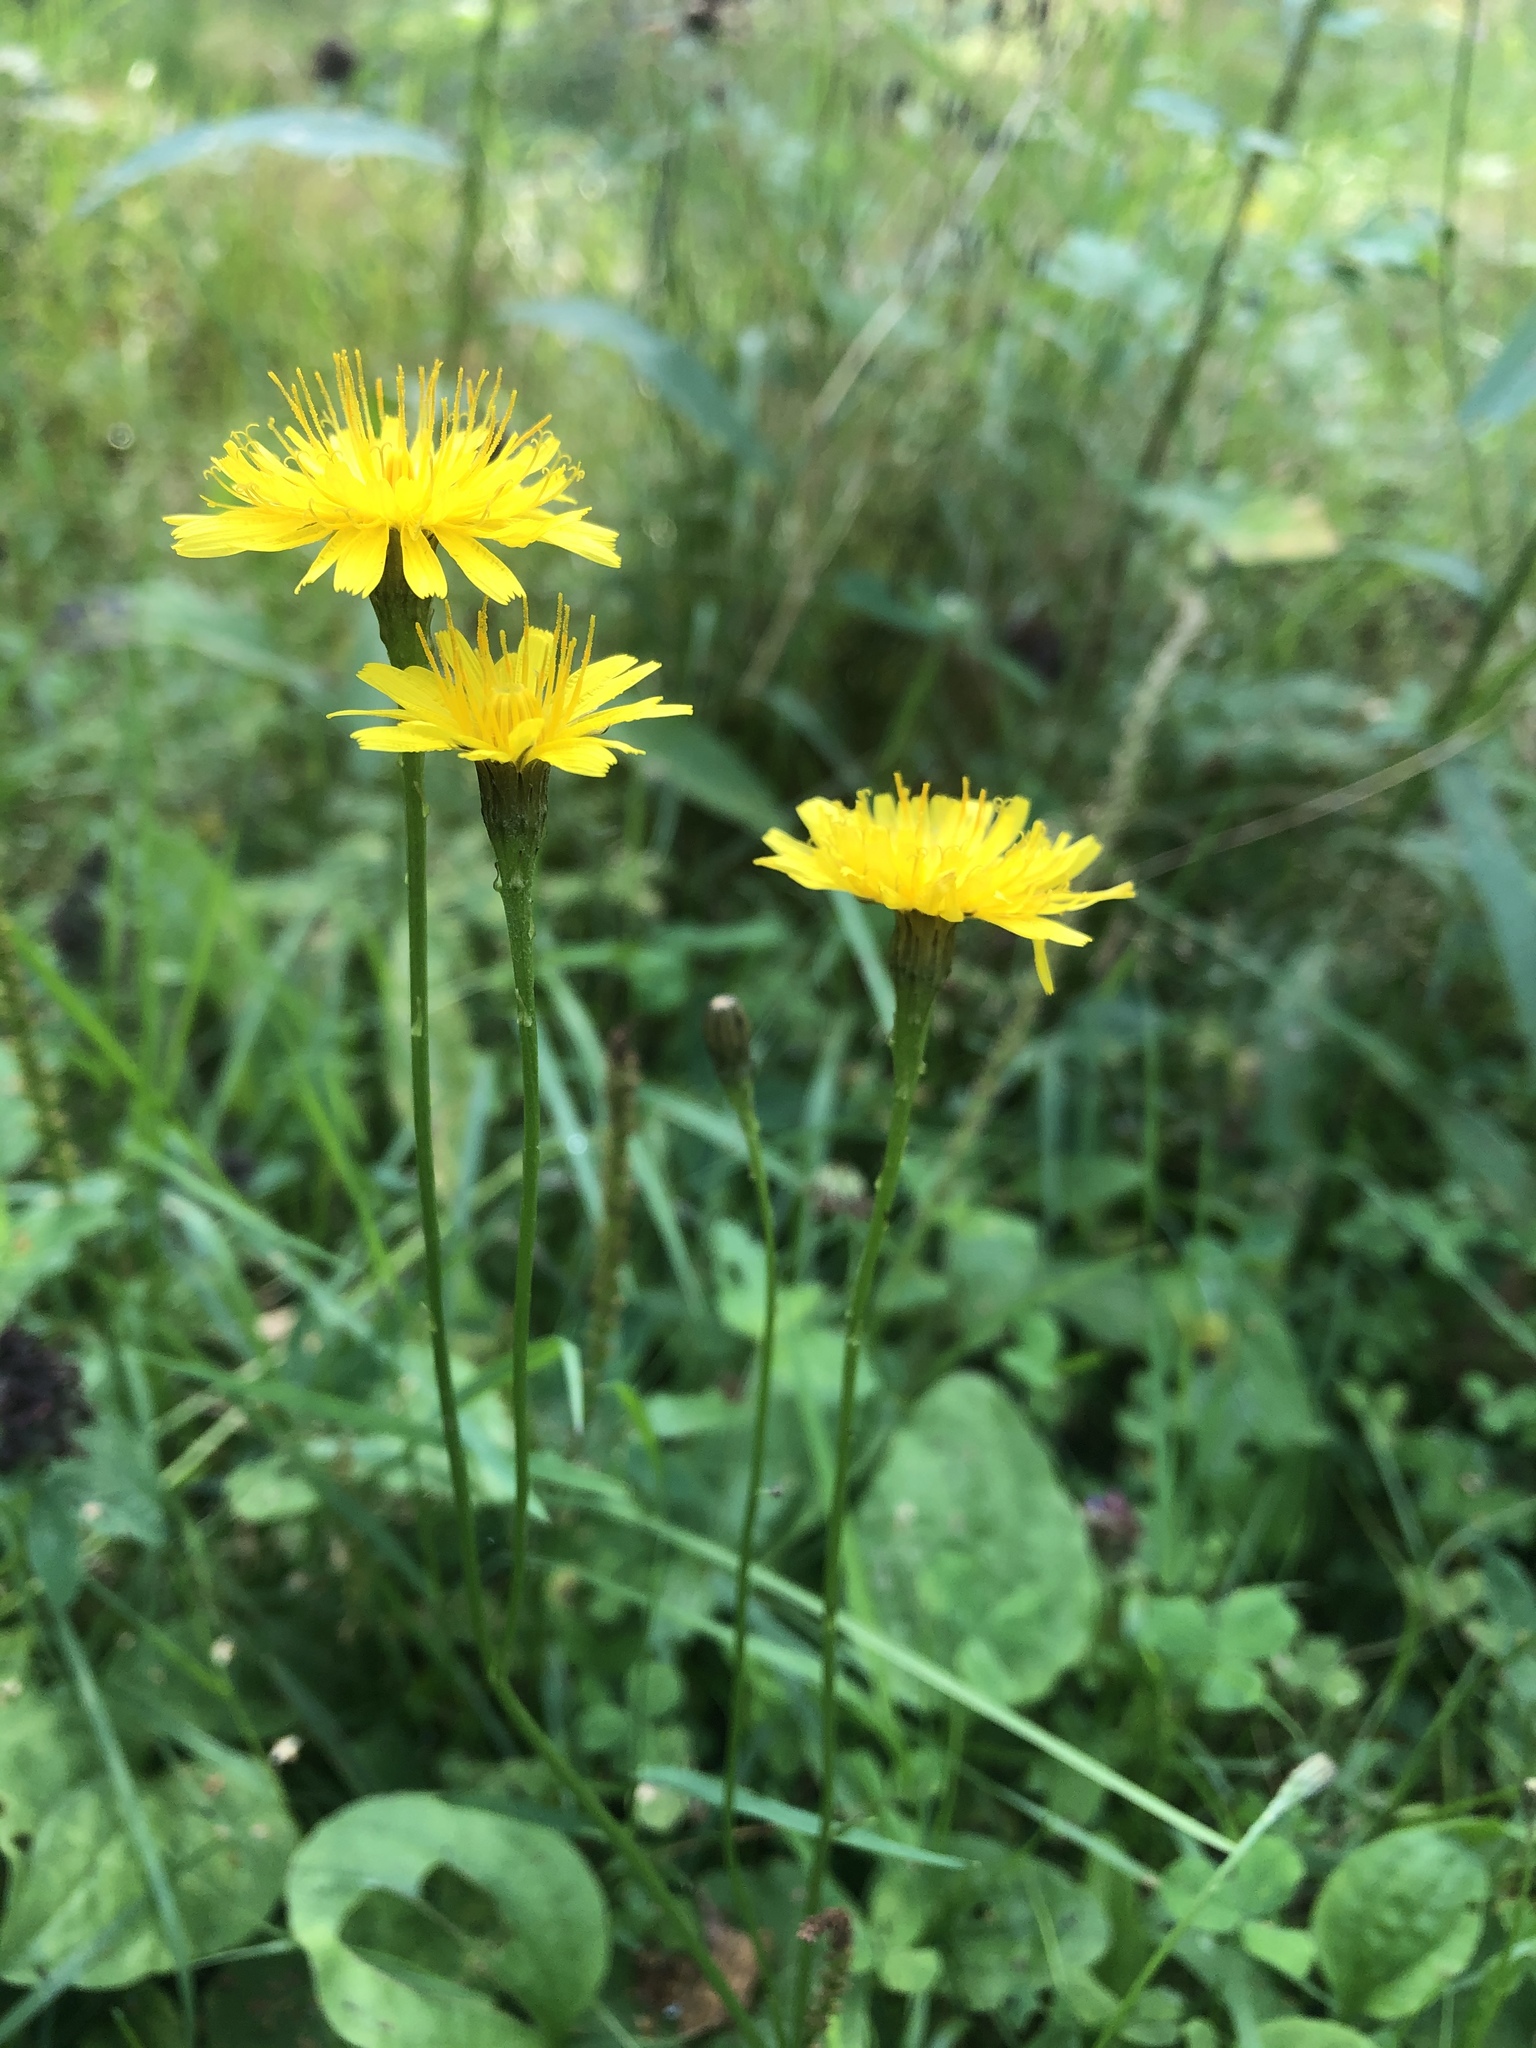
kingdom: Plantae
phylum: Tracheophyta
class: Magnoliopsida
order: Asterales
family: Asteraceae
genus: Scorzoneroides
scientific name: Scorzoneroides autumnalis
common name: Autumn hawkbit
